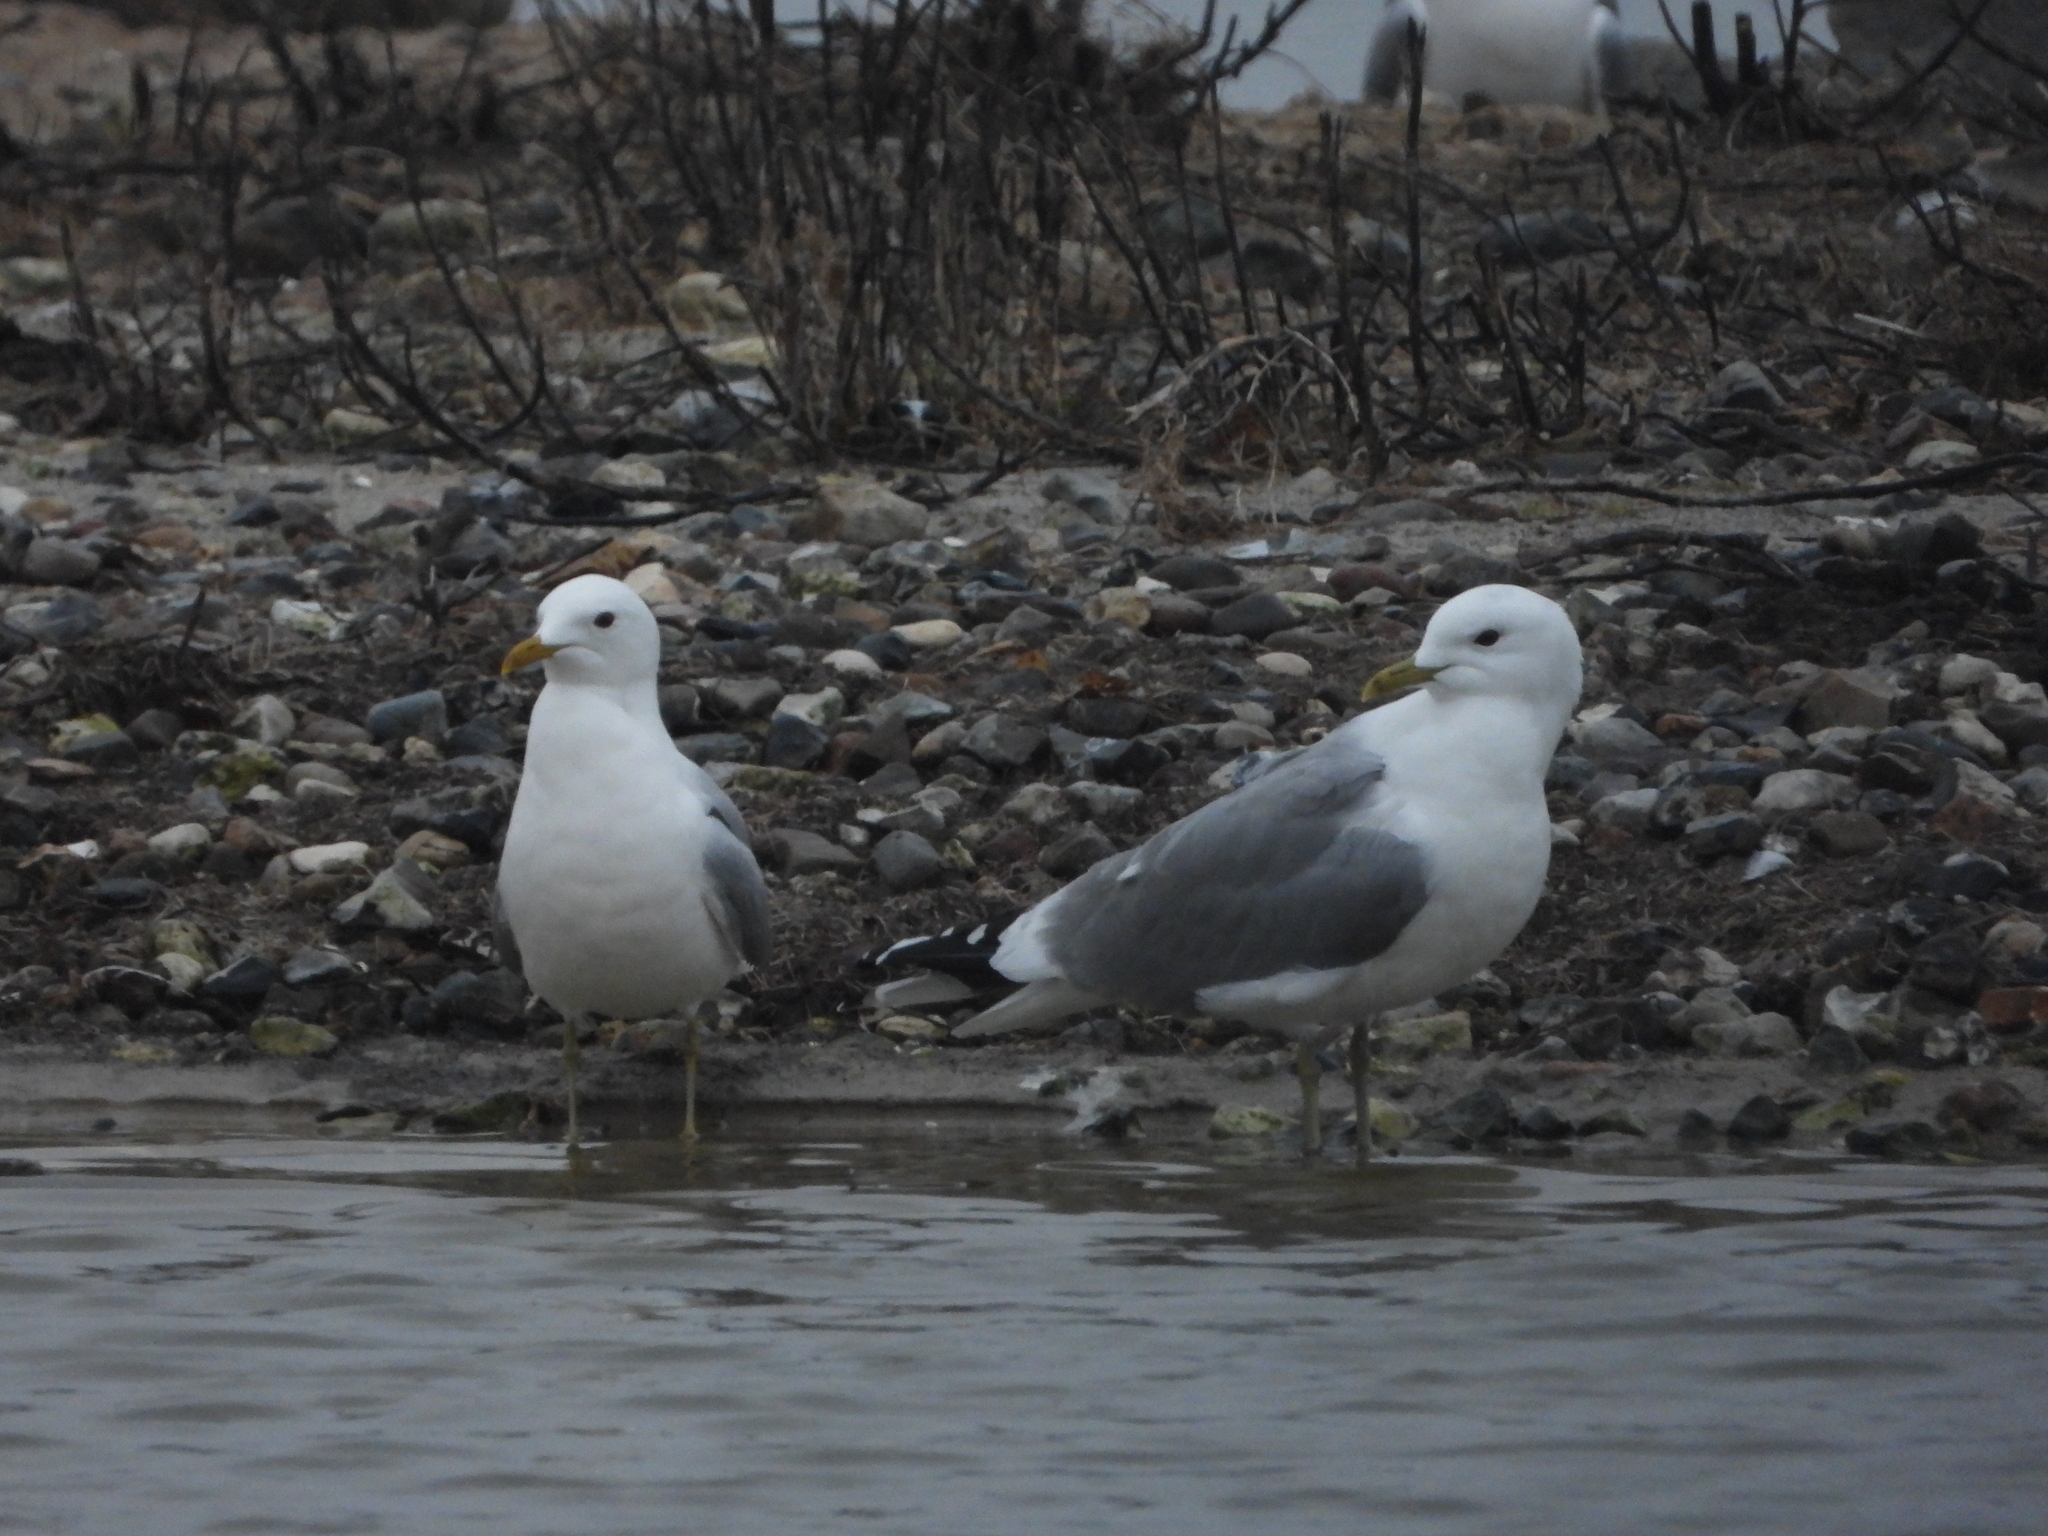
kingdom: Animalia
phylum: Chordata
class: Aves
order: Charadriiformes
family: Laridae
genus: Larus
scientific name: Larus canus
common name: Mew gull
